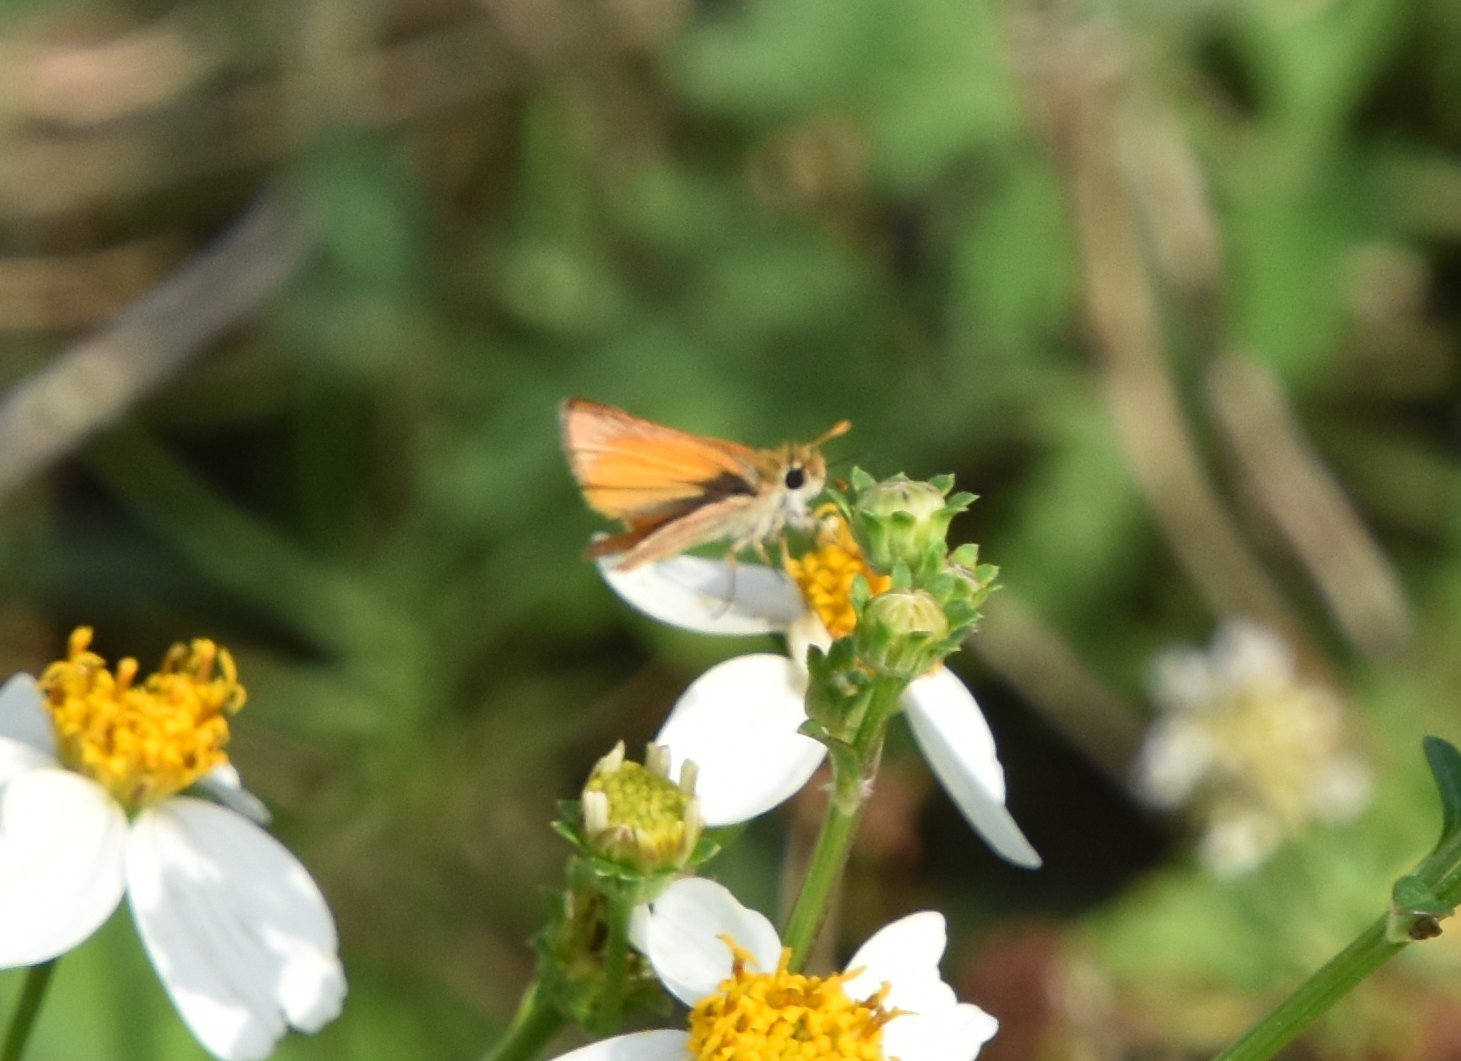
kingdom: Animalia
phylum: Arthropoda
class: Insecta
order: Lepidoptera
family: Hesperiidae
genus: Copaeodes
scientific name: Copaeodes minima
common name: Southern skipperling
